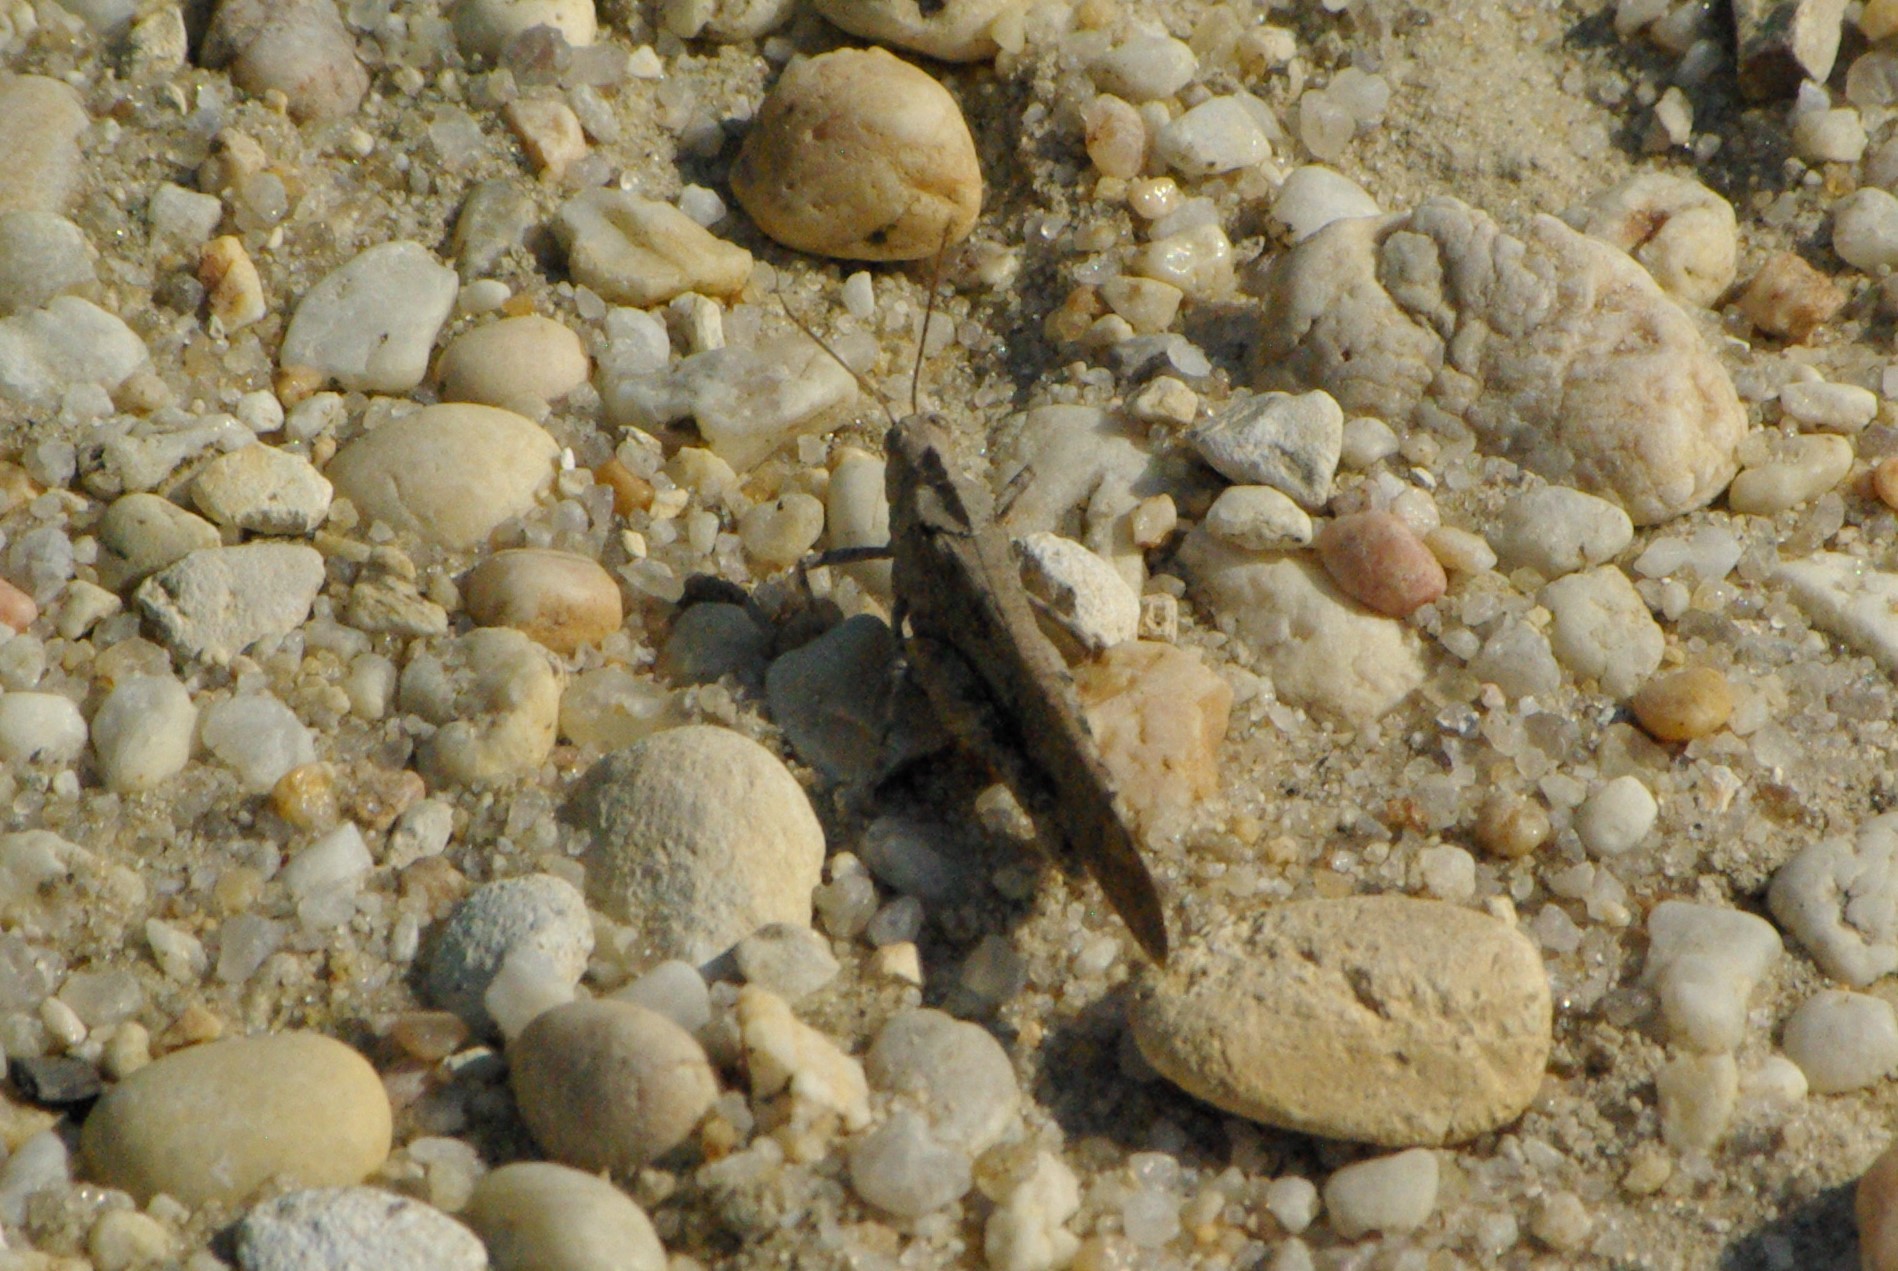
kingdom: Animalia
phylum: Arthropoda
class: Insecta
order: Orthoptera
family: Acrididae
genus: Dissosteira
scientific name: Dissosteira carolina
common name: Carolina grasshopper
